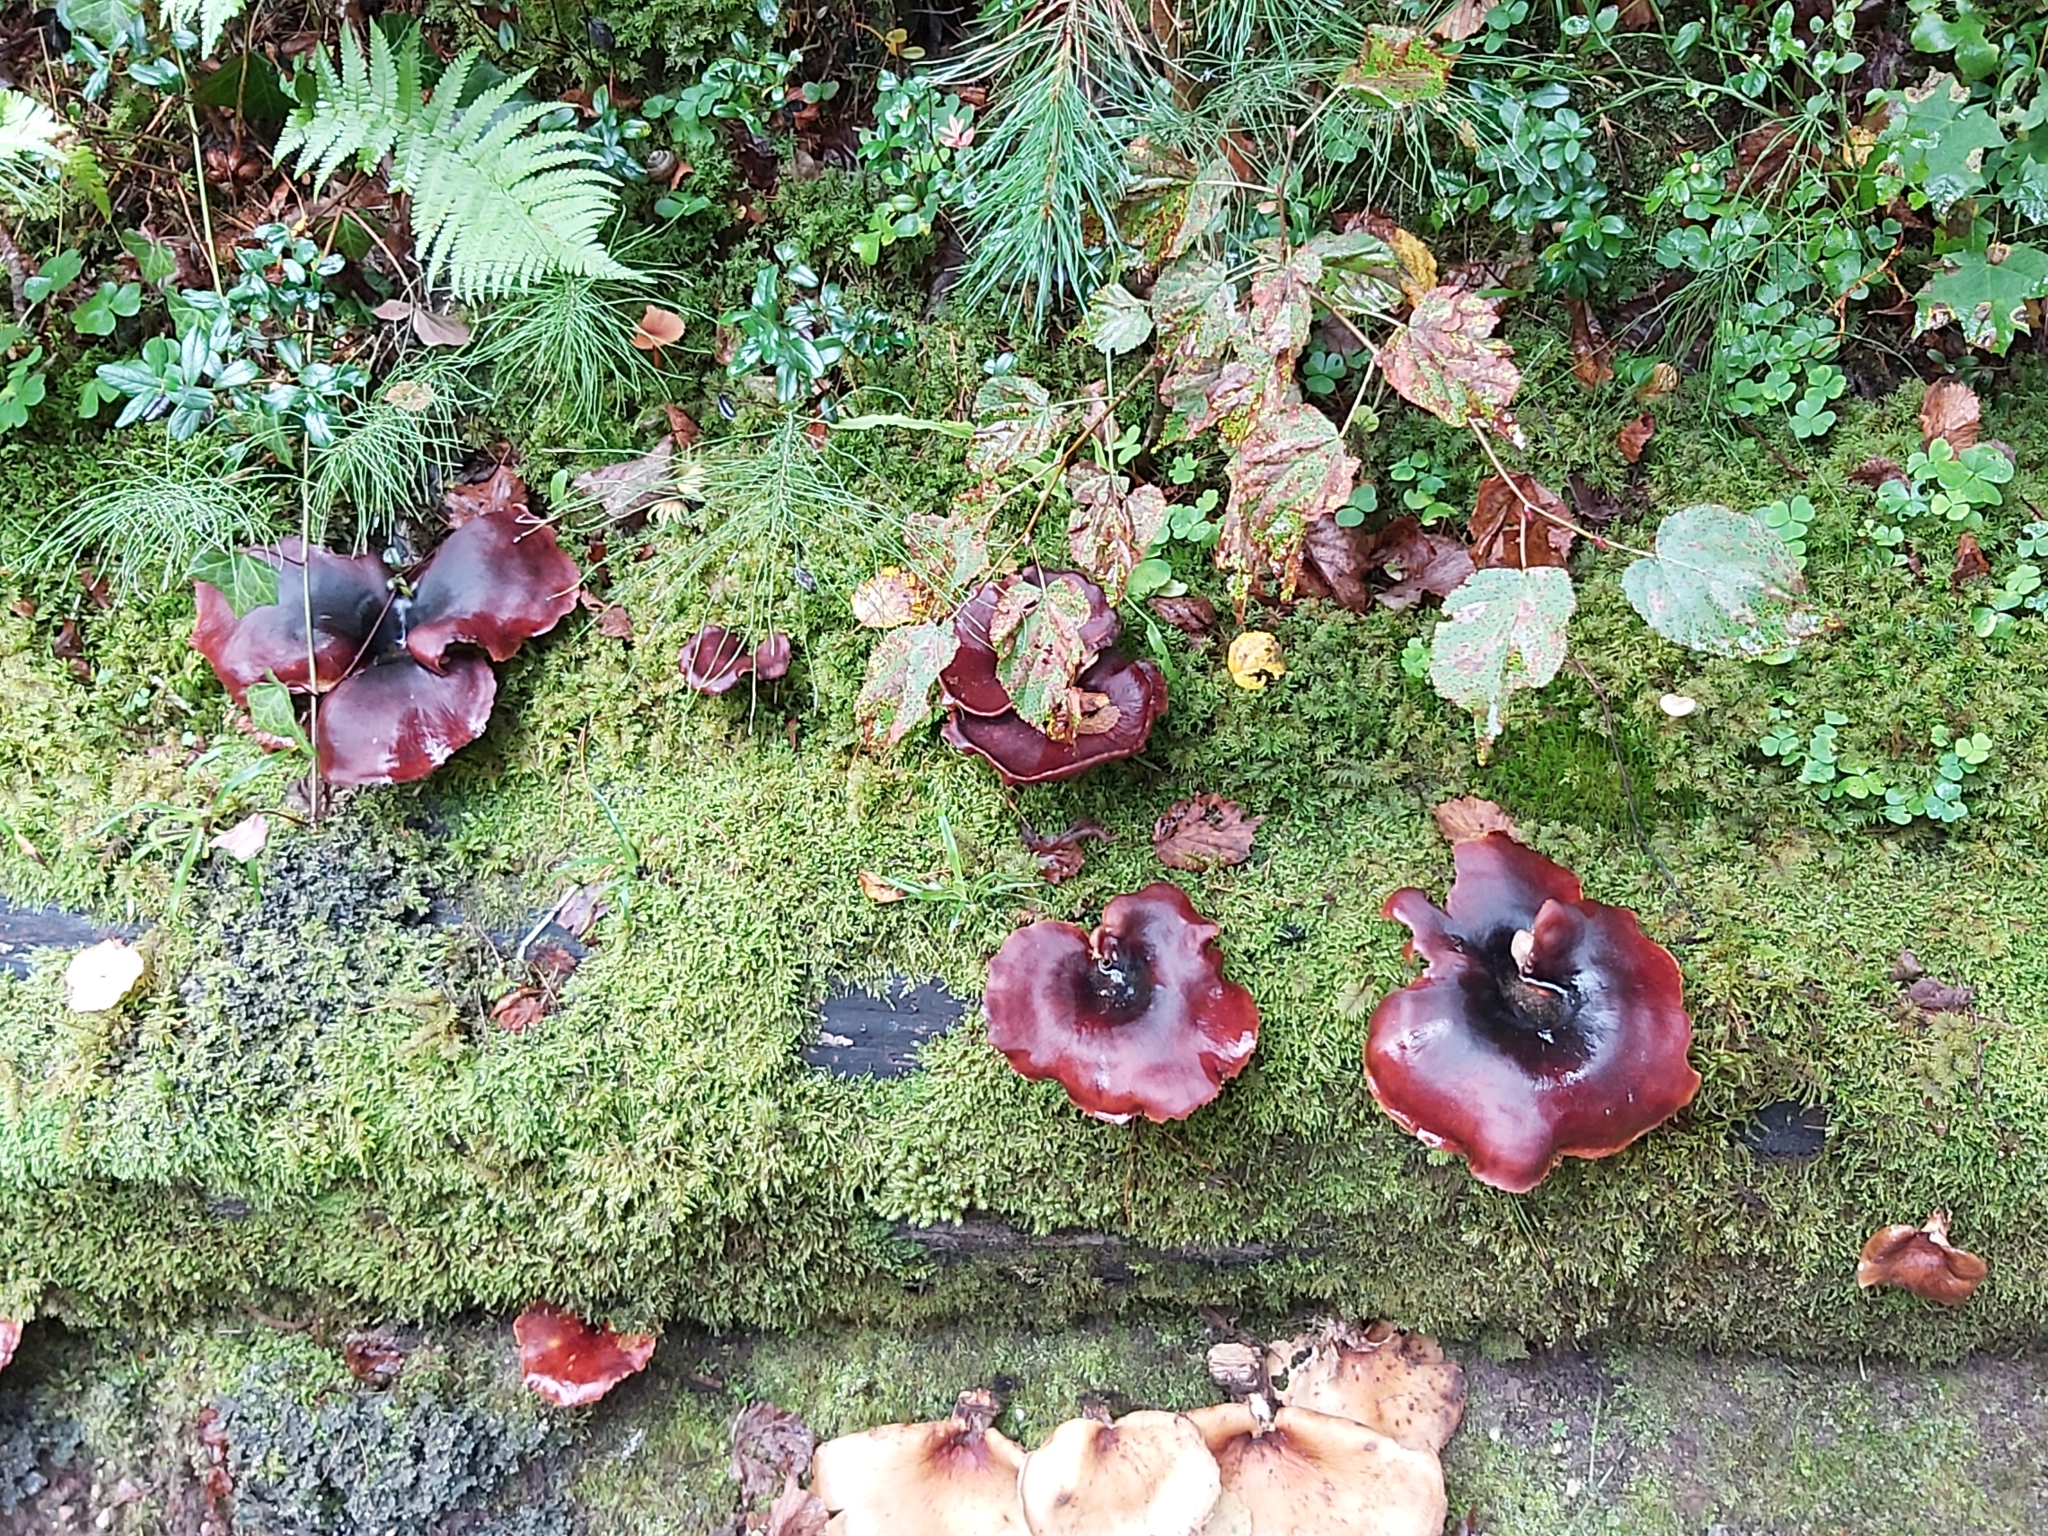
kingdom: Fungi
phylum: Basidiomycota
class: Agaricomycetes
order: Polyporales
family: Polyporaceae
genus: Picipes
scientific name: Picipes badius
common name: Bay polypore
